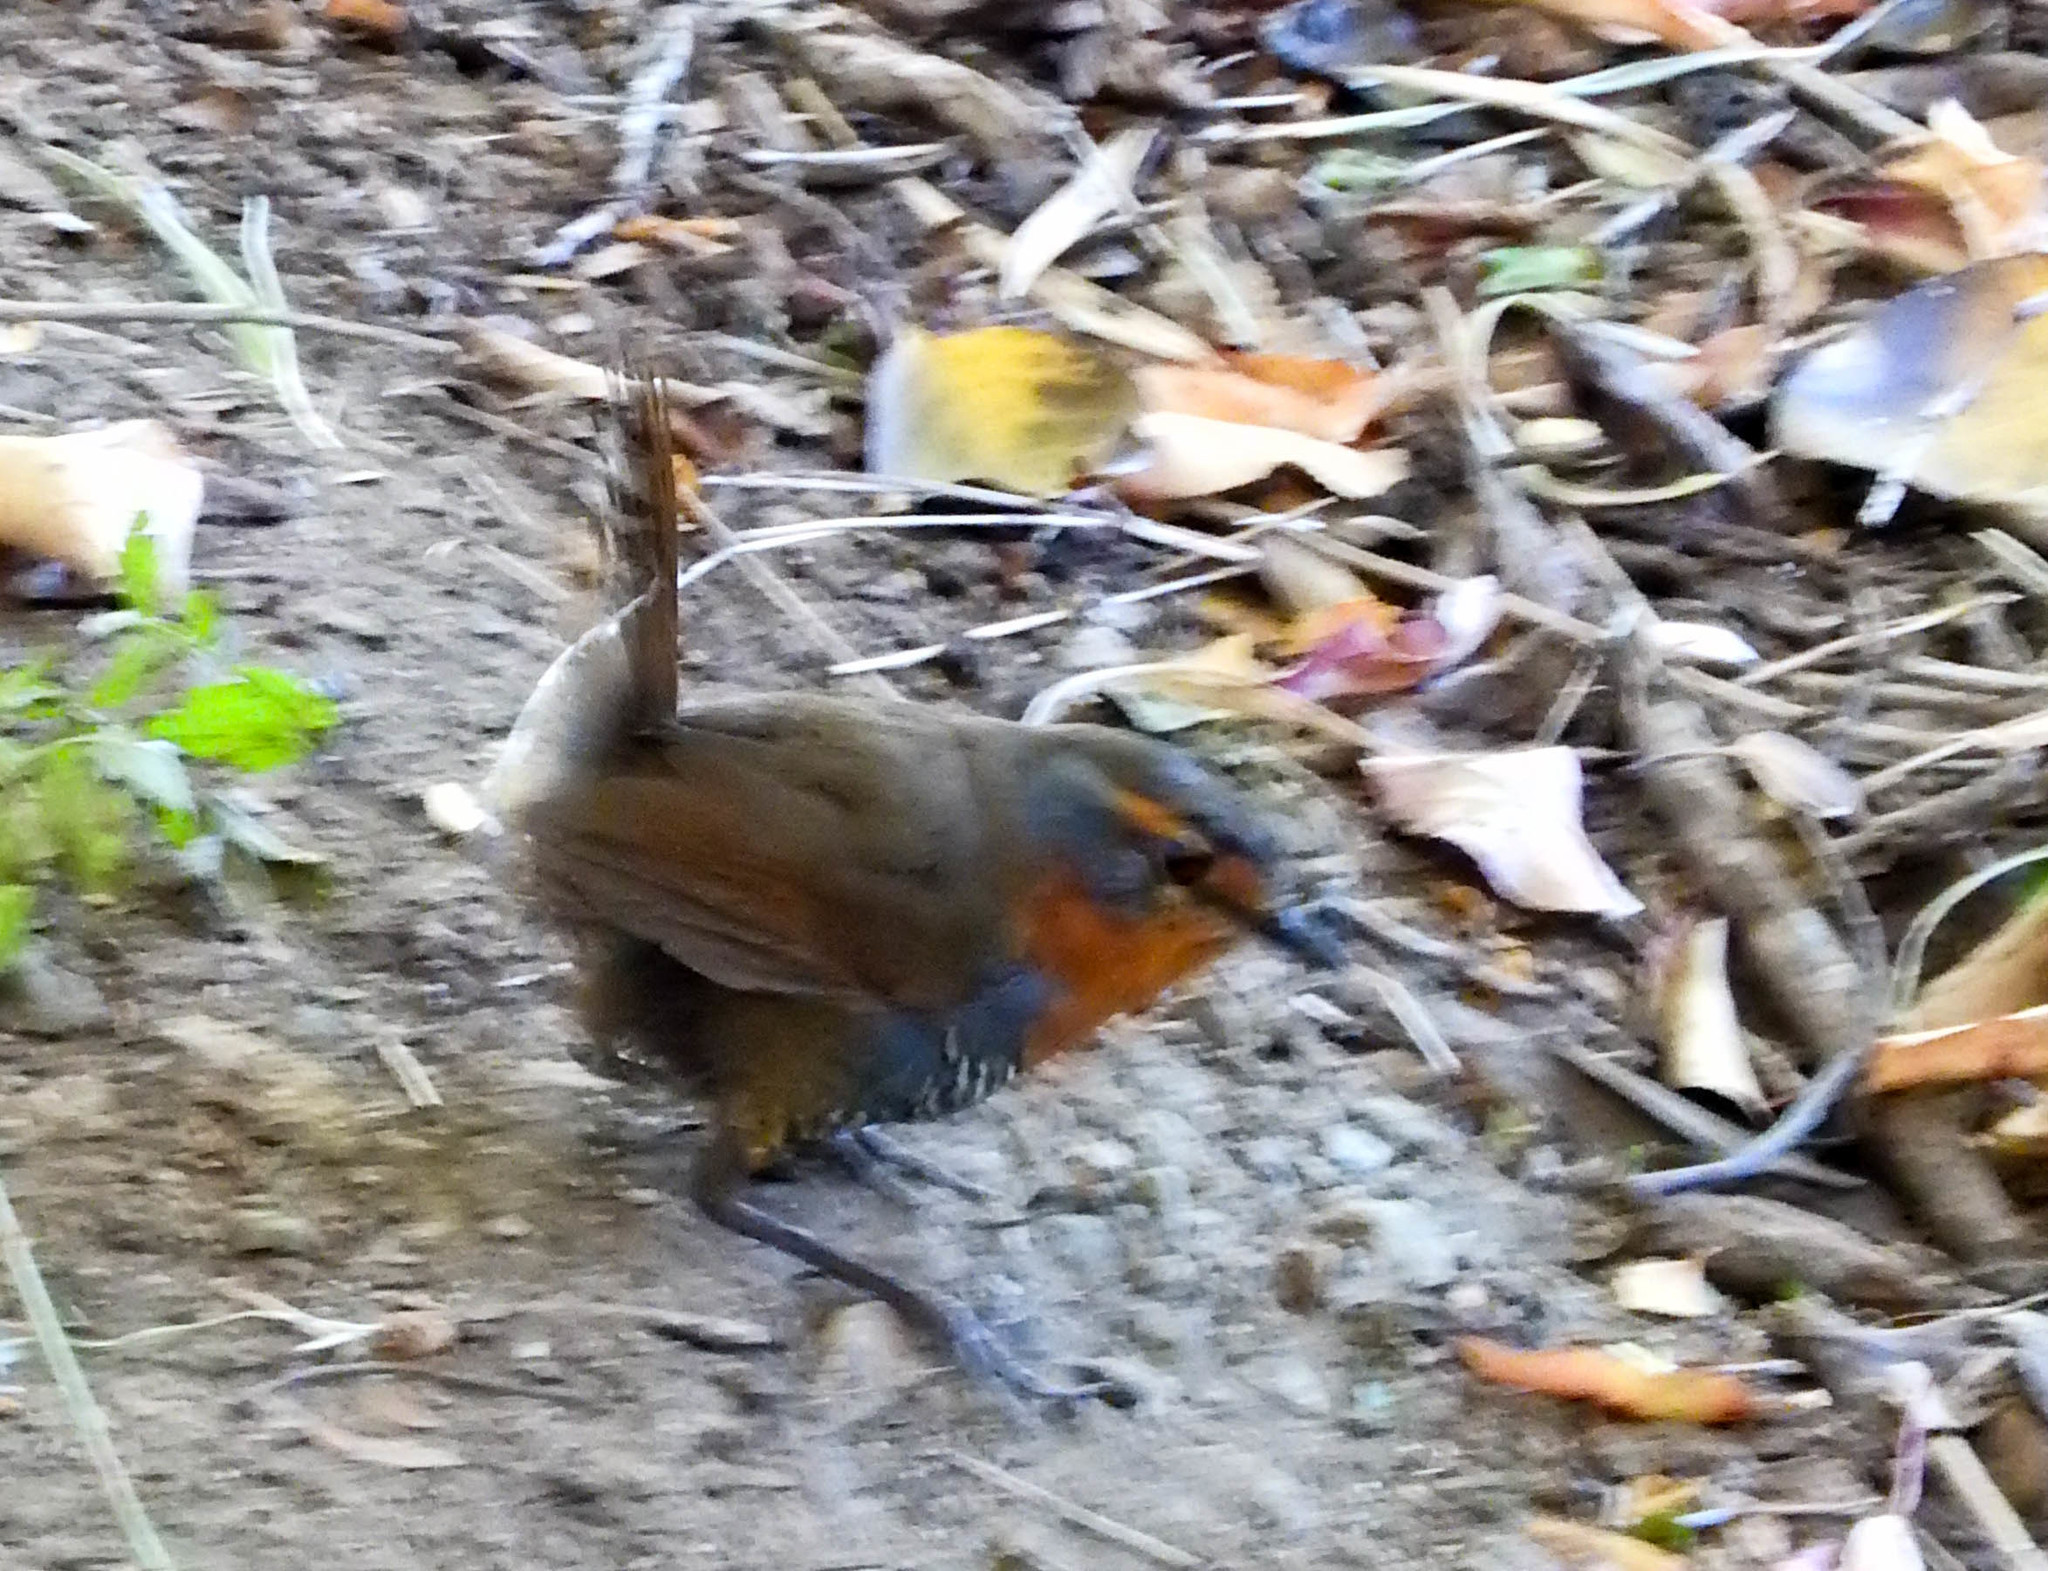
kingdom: Animalia
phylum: Chordata
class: Aves
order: Passeriformes
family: Rhinocryptidae
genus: Scelorchilus
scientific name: Scelorchilus rubecula
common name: Chucao tapaculo
